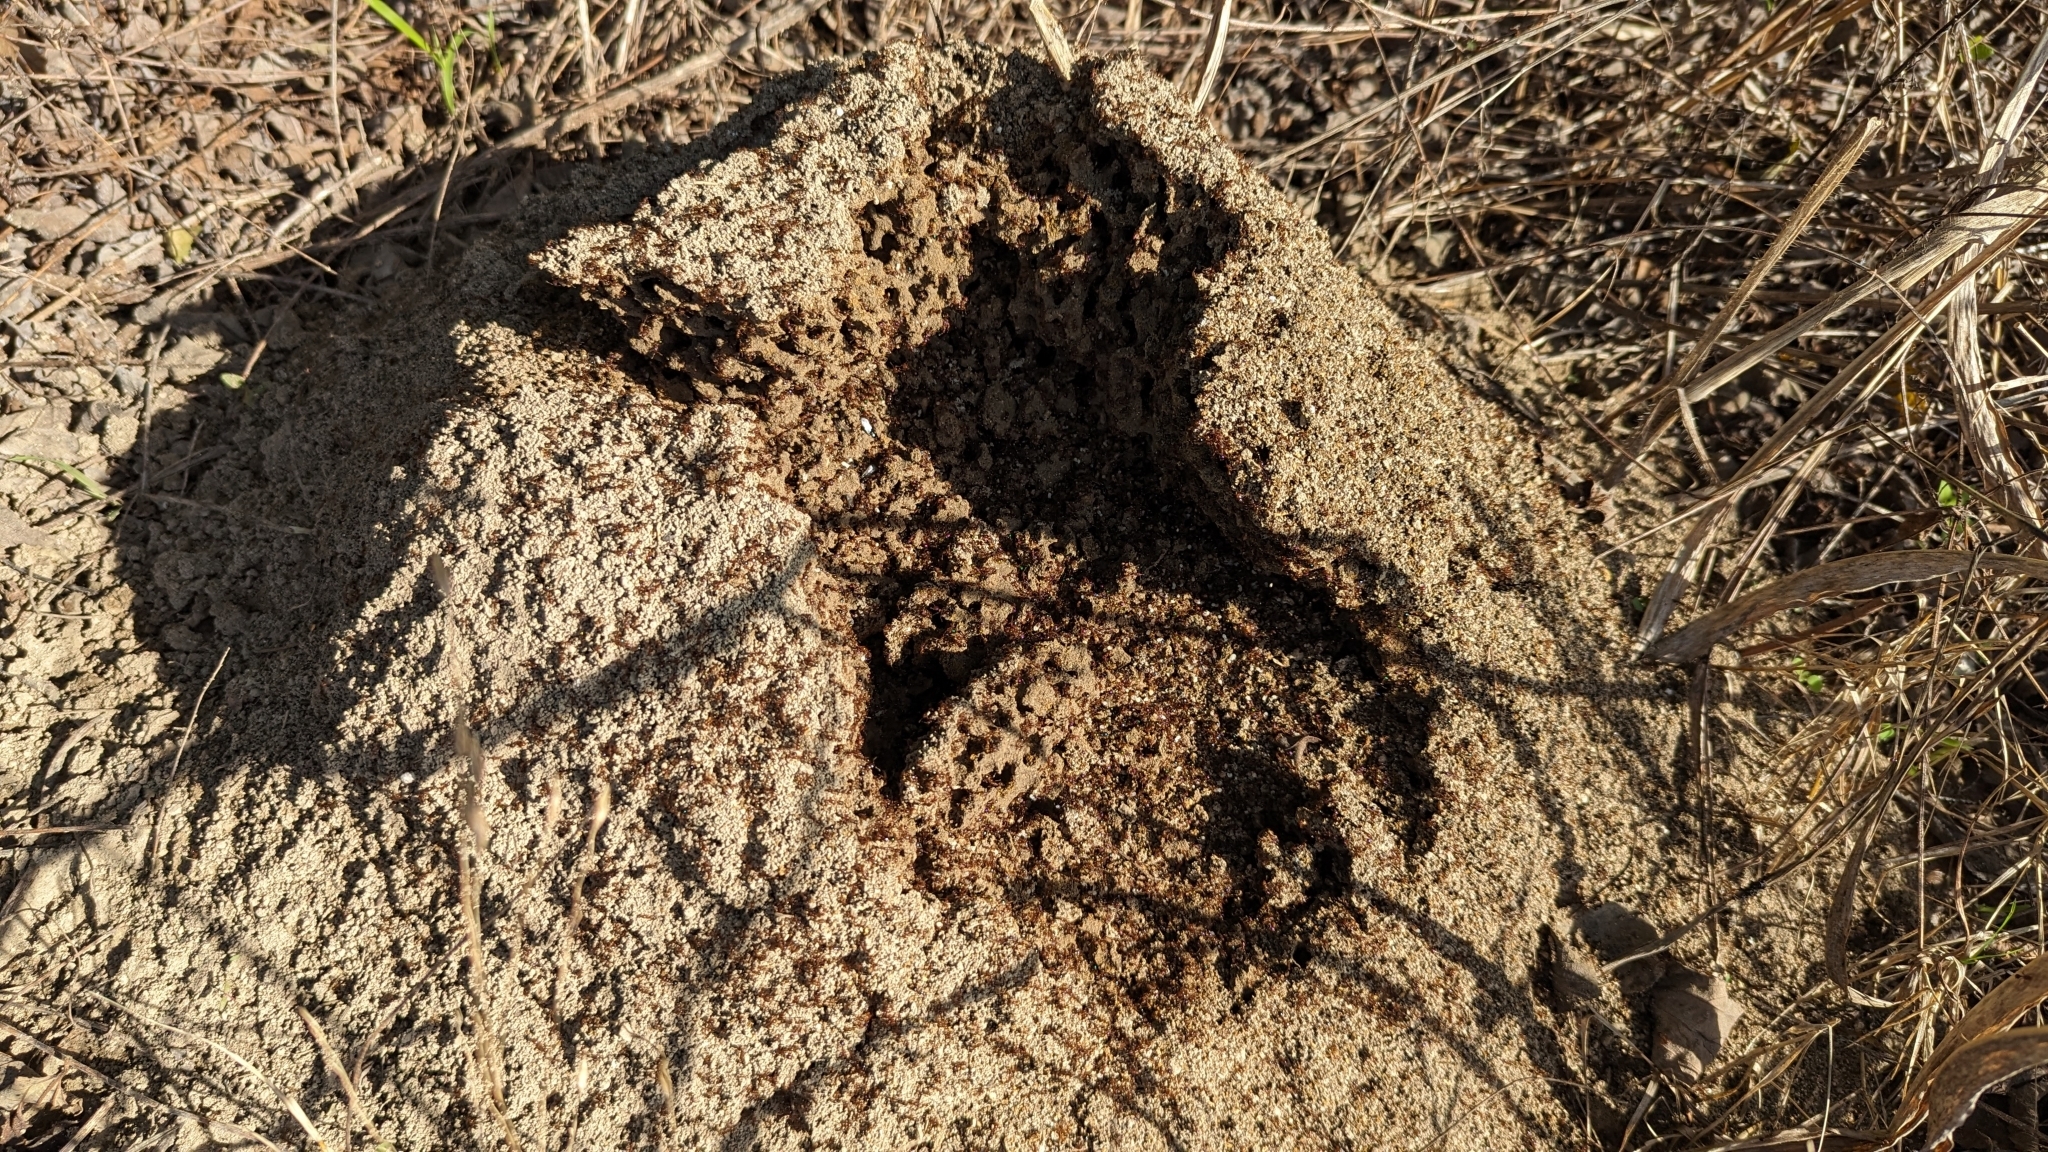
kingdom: Animalia
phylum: Arthropoda
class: Insecta
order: Hymenoptera
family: Formicidae
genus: Solenopsis
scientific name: Solenopsis invicta
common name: Red imported fire ant
